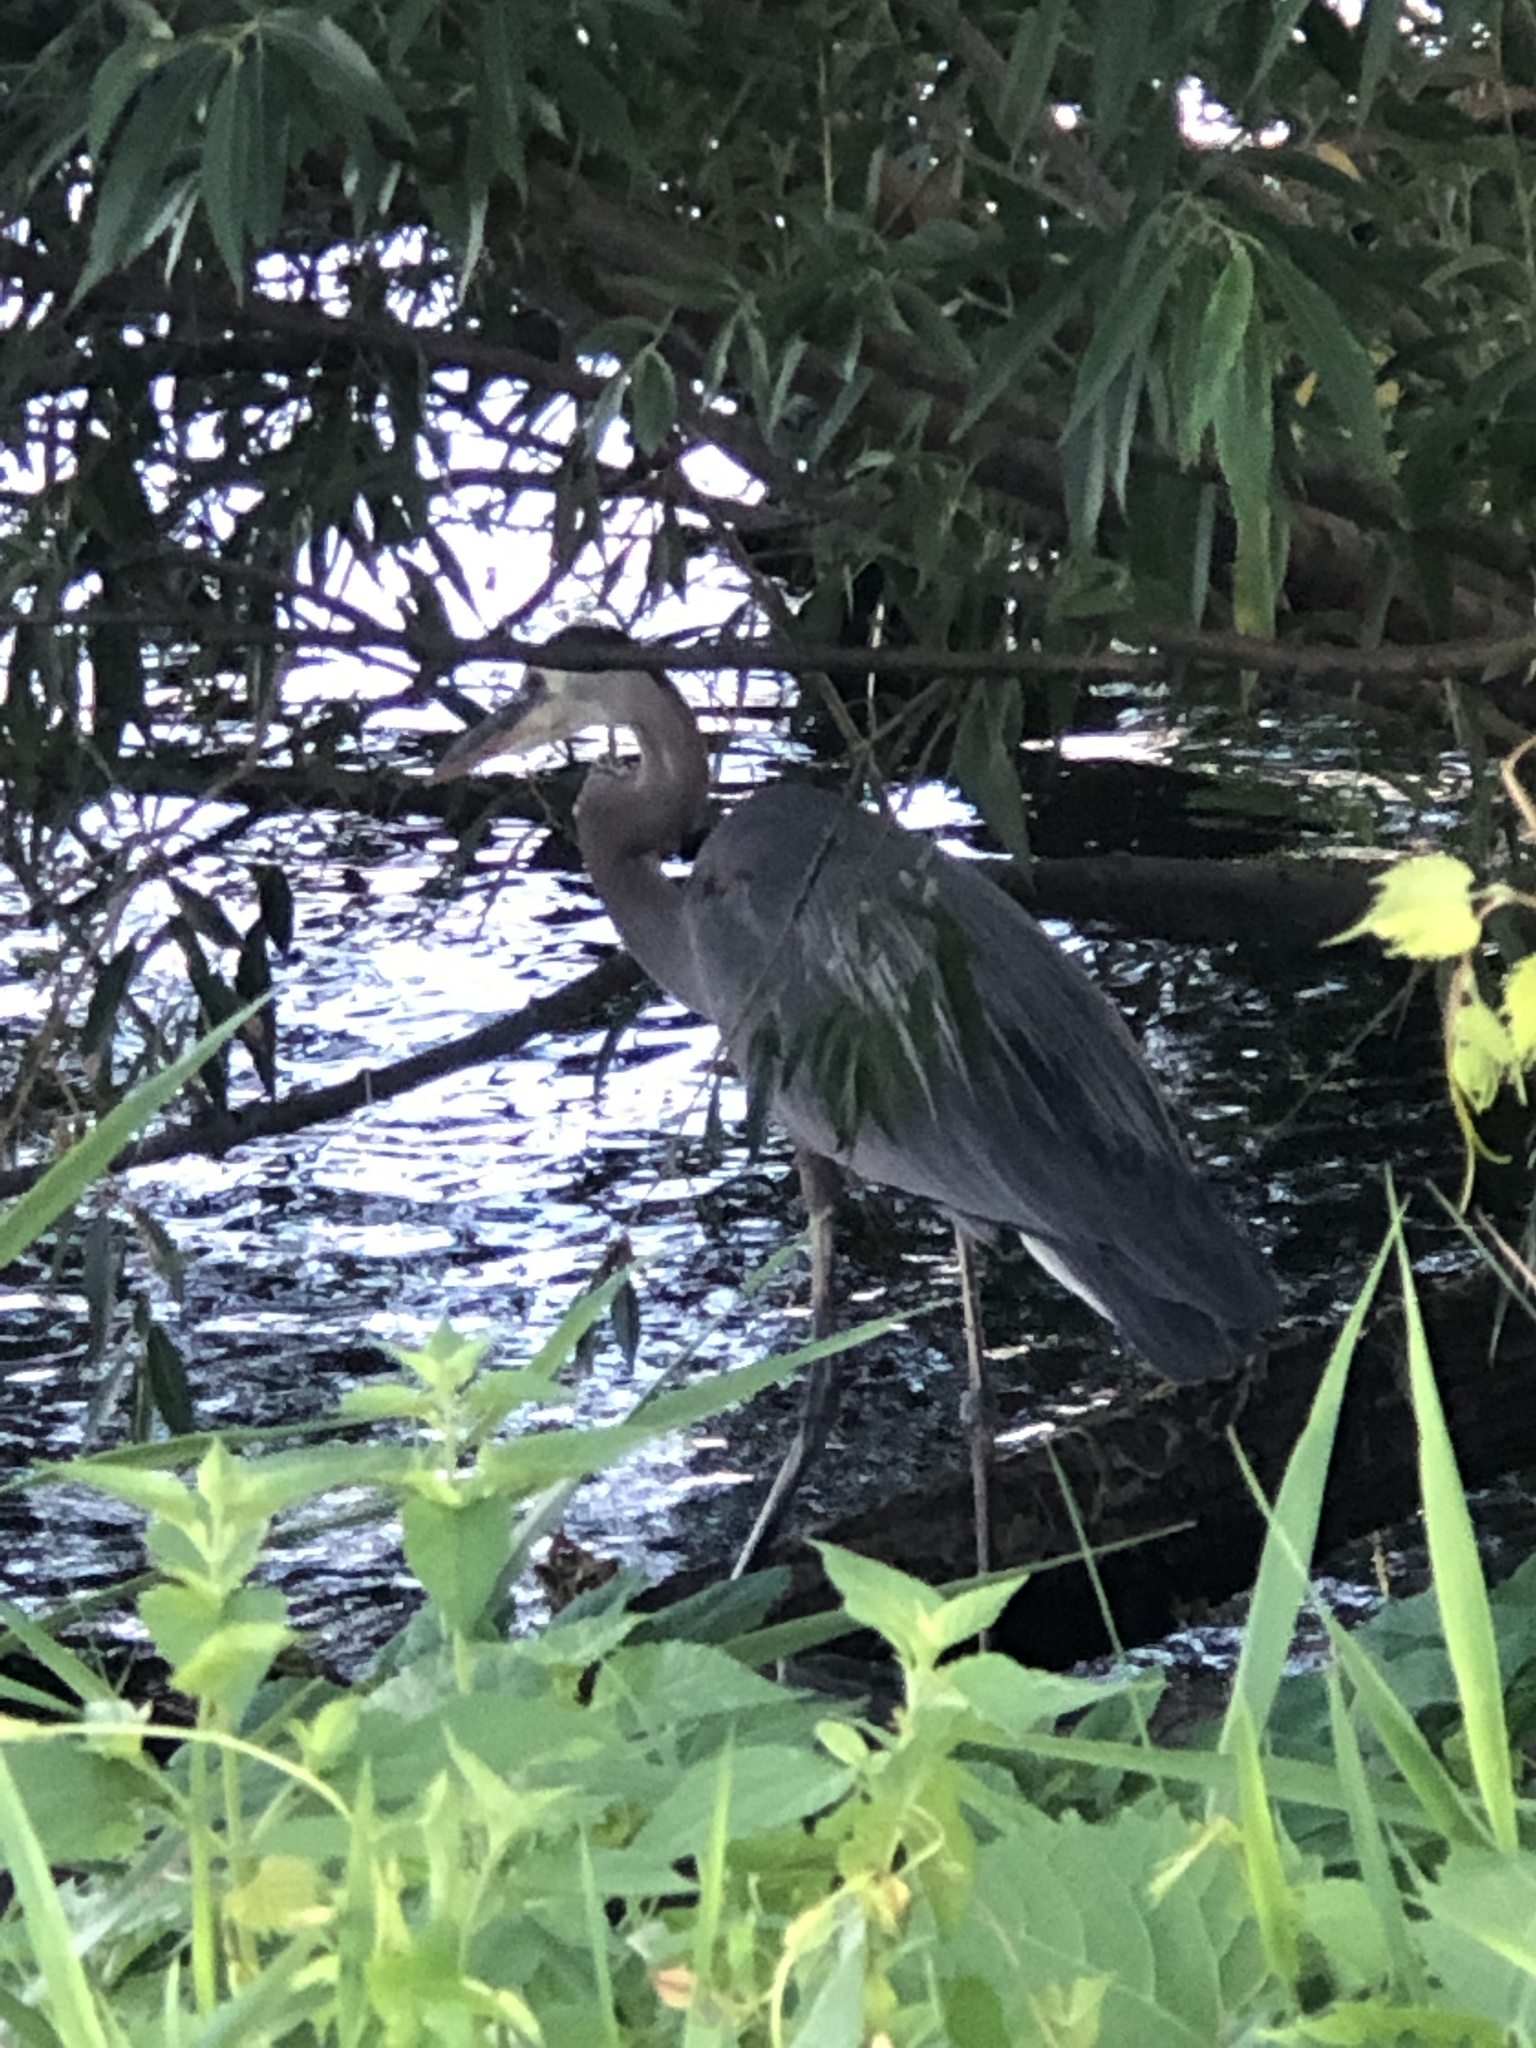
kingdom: Animalia
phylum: Chordata
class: Aves
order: Pelecaniformes
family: Ardeidae
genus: Ardea
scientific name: Ardea herodias
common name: Great blue heron
